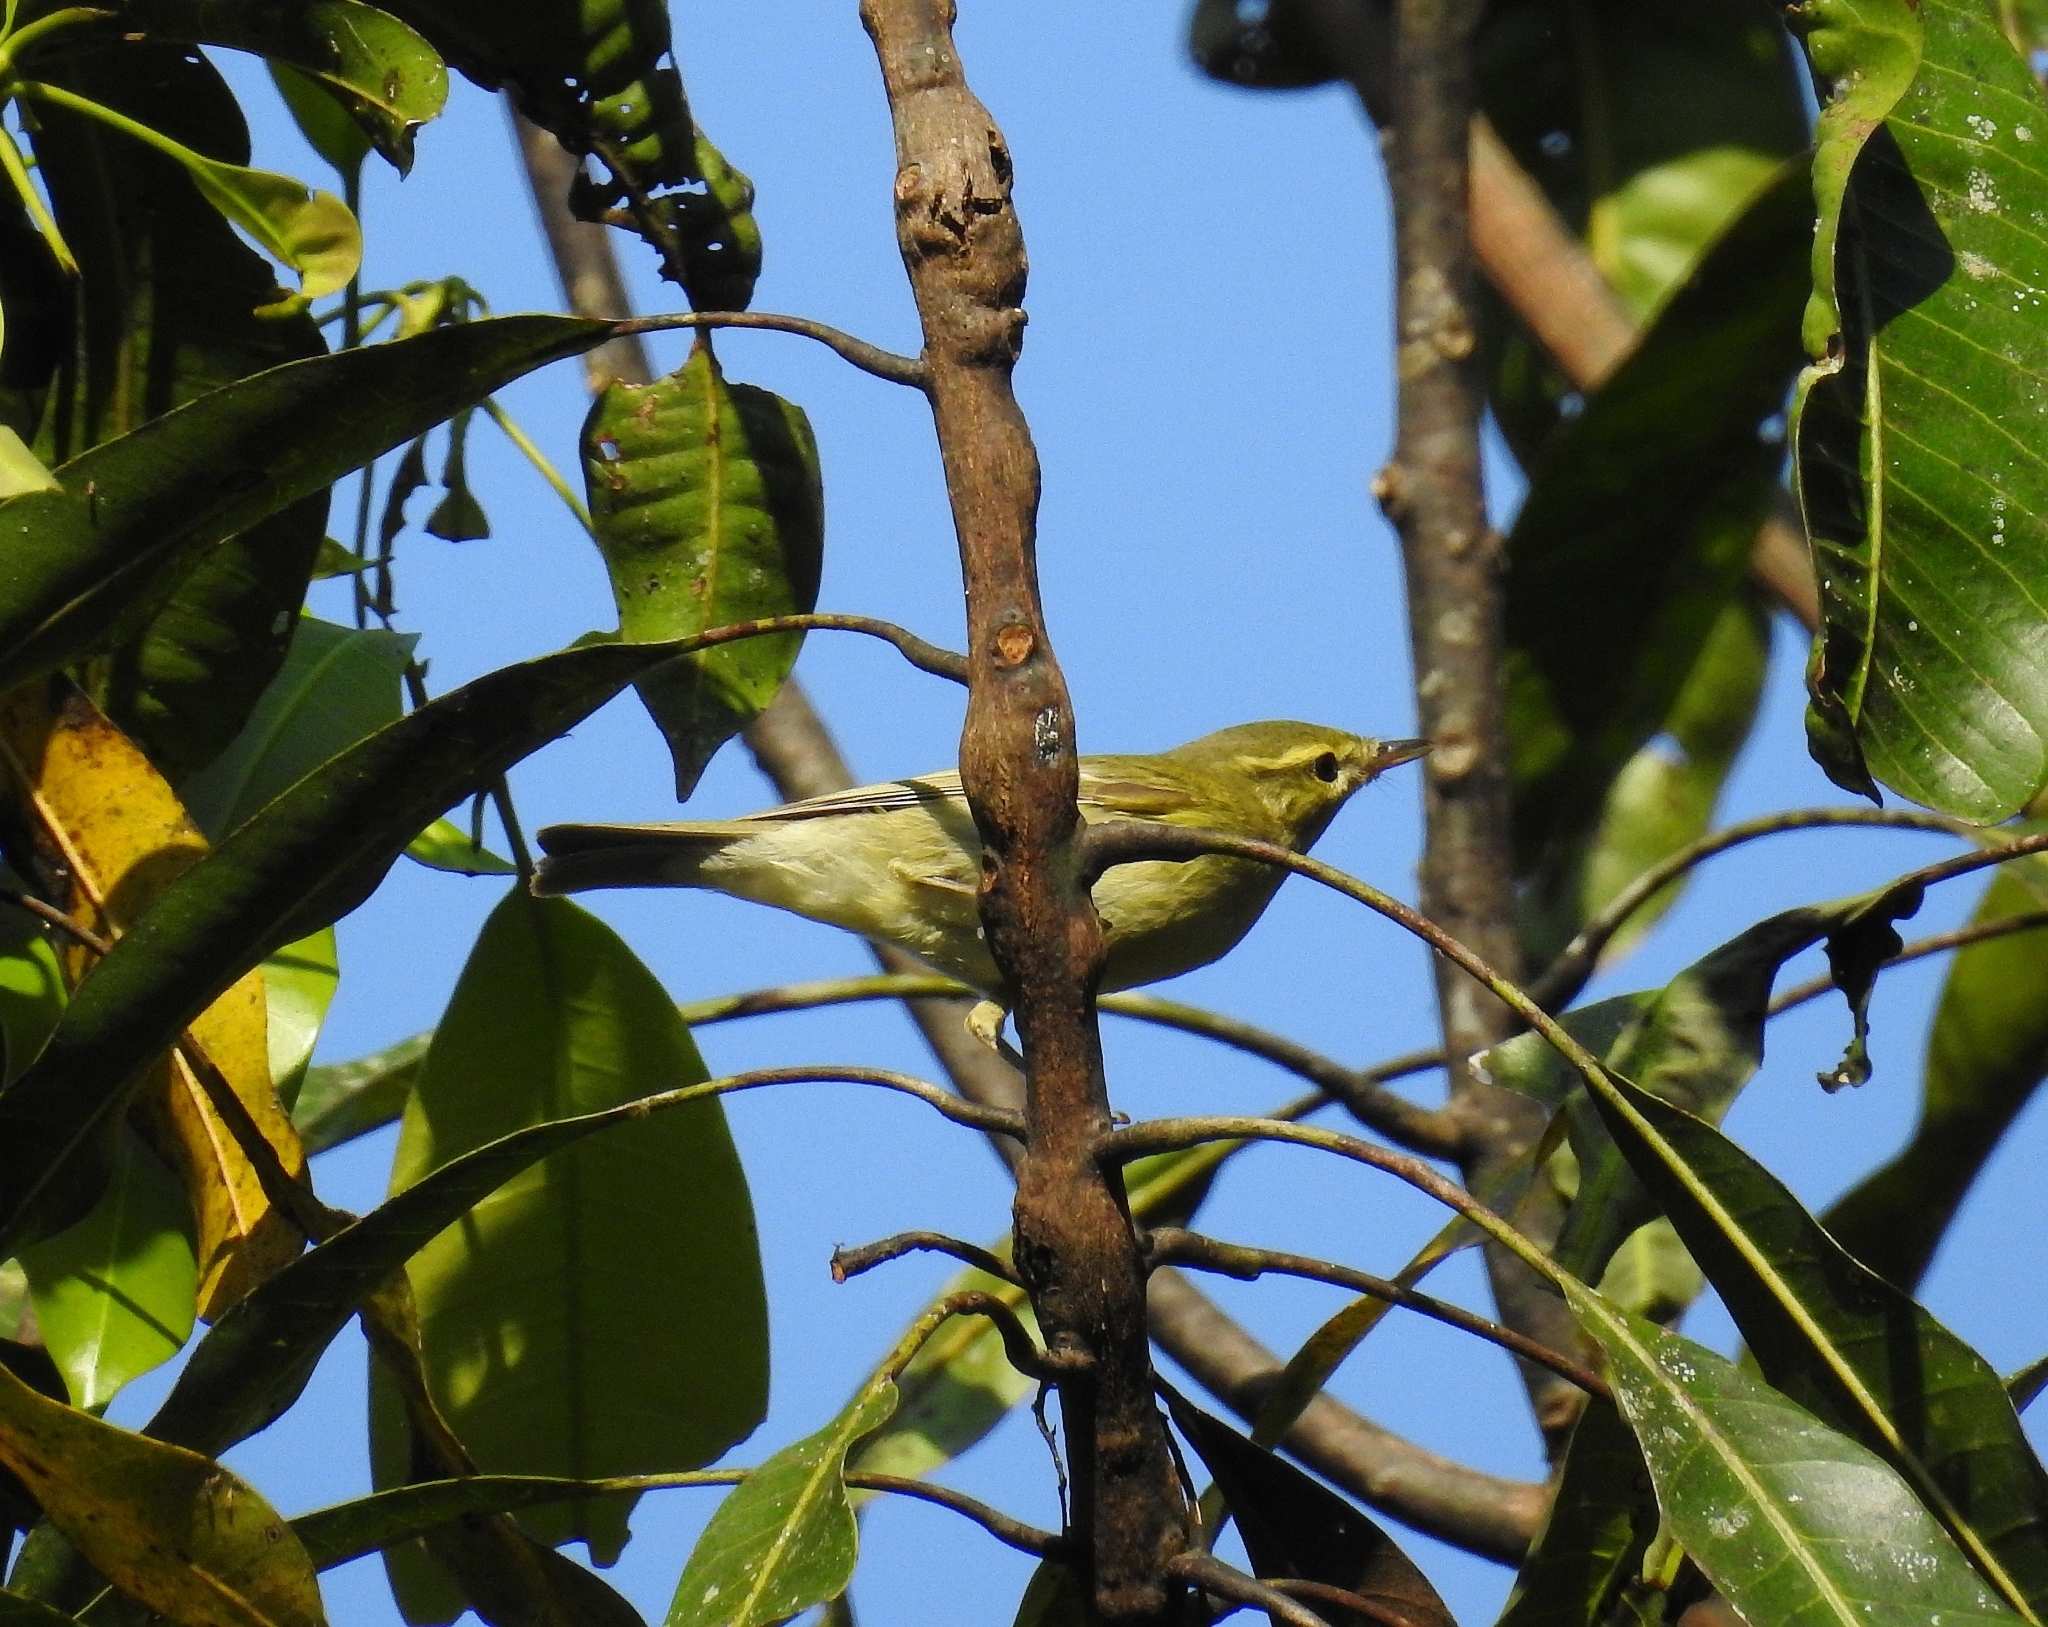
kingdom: Animalia
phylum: Chordata
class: Aves
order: Passeriformes
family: Phylloscopidae
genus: Phylloscopus
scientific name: Phylloscopus nitidus
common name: Green warbler
